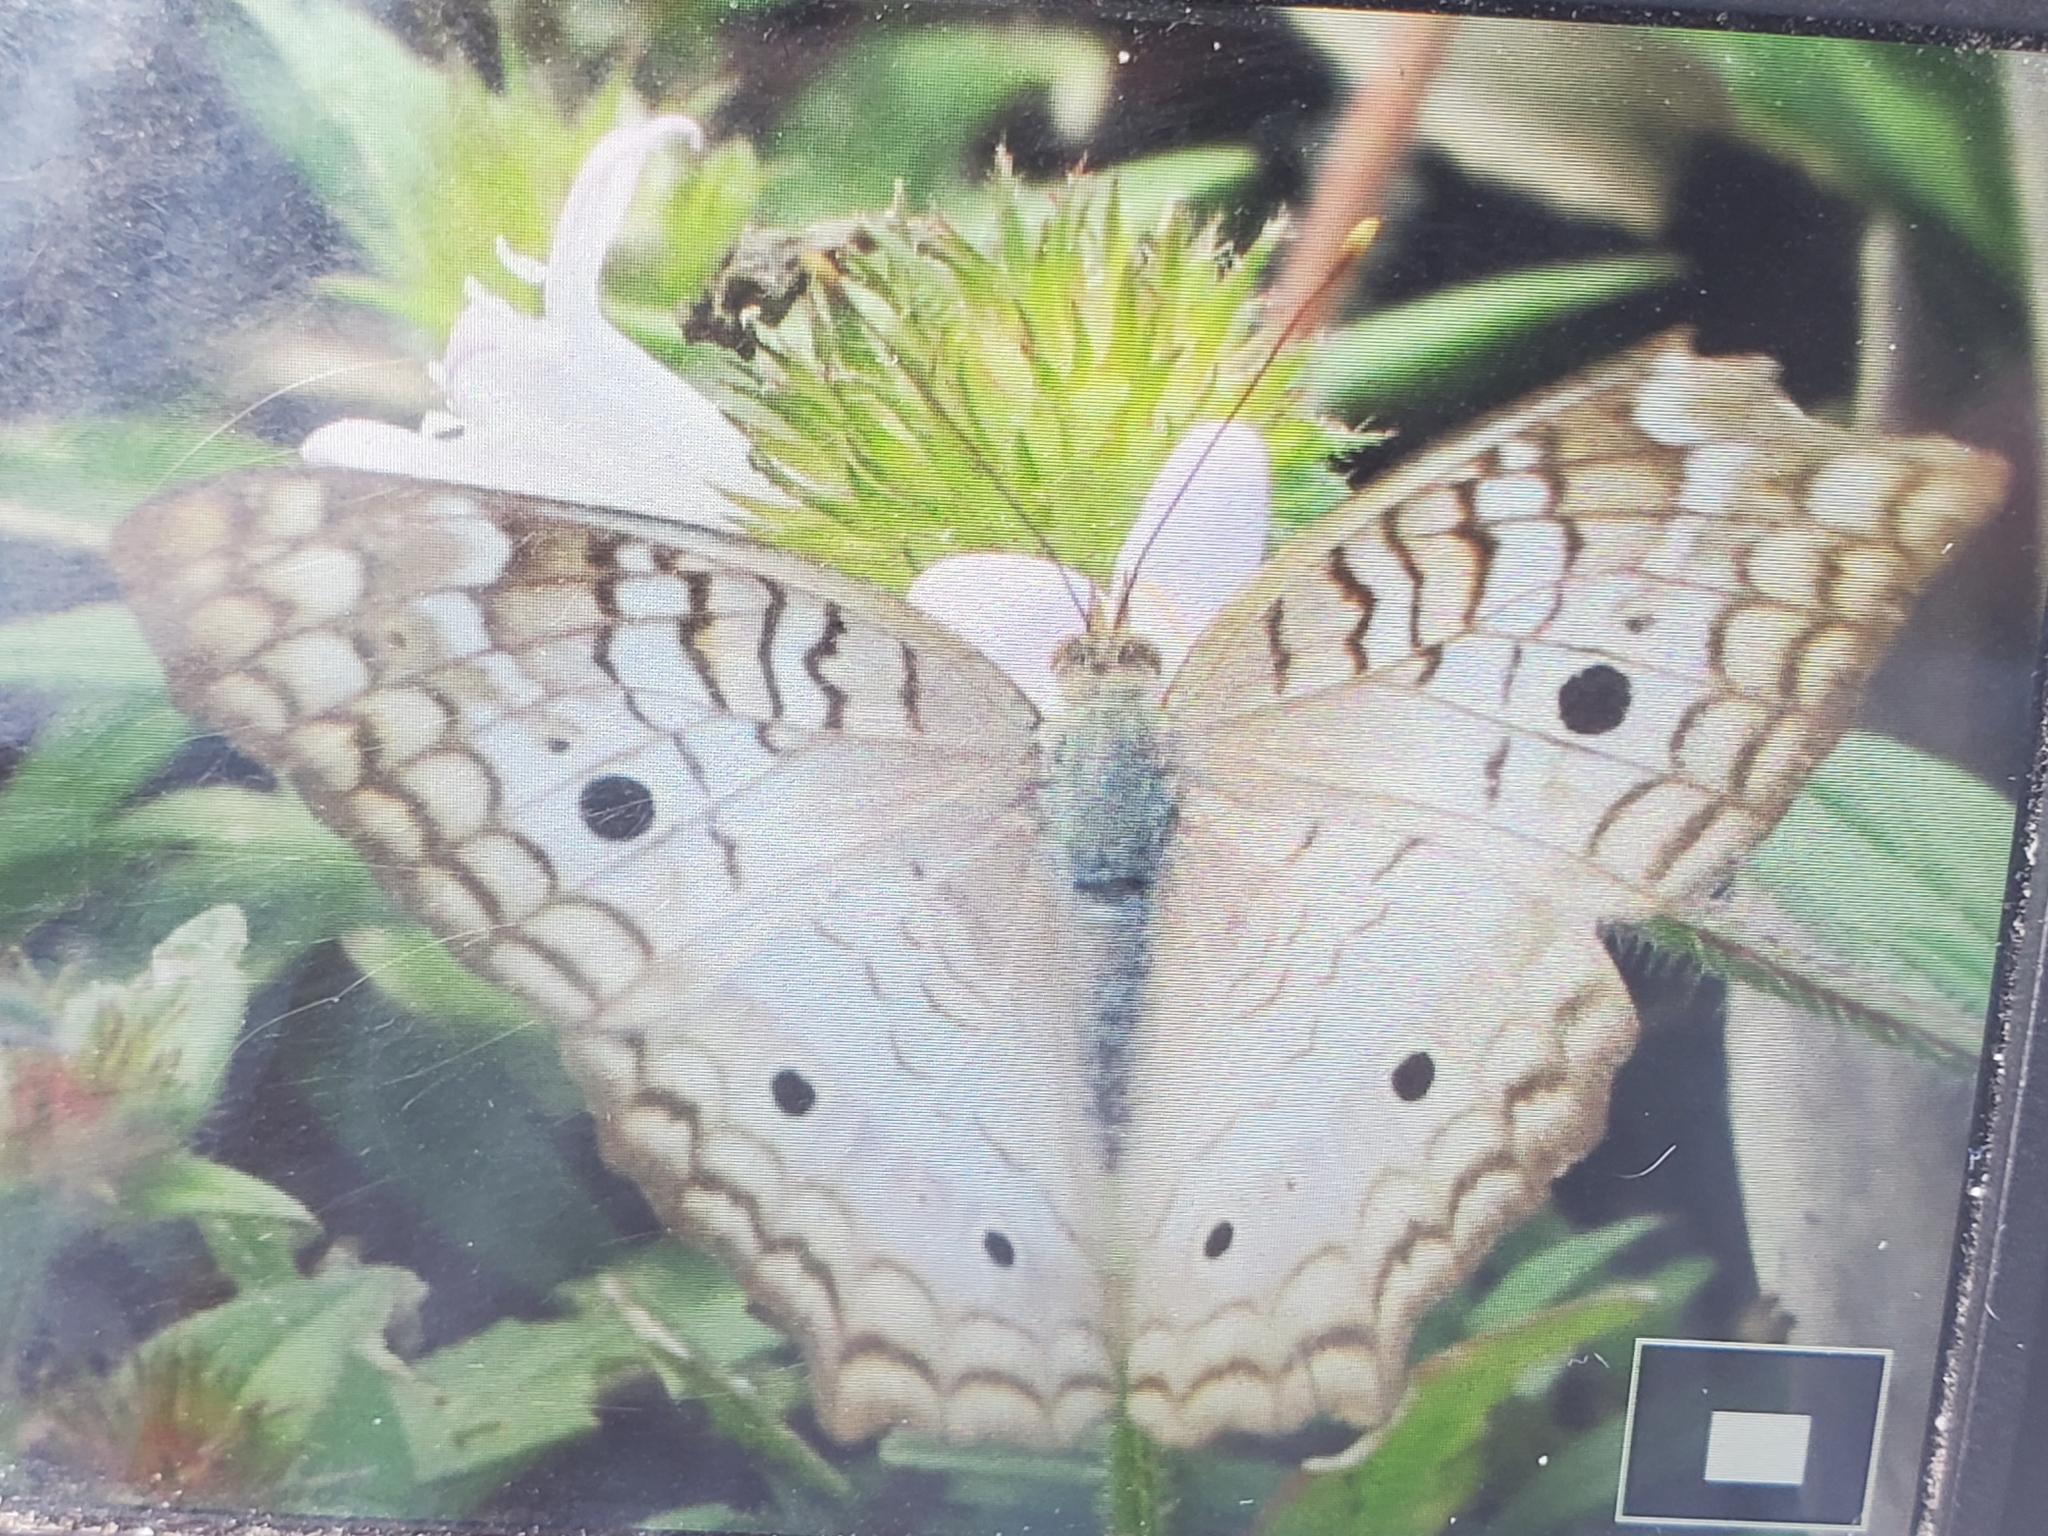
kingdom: Animalia
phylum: Arthropoda
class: Insecta
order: Lepidoptera
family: Nymphalidae
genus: Anartia
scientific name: Anartia jatrophae
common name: White peacock
